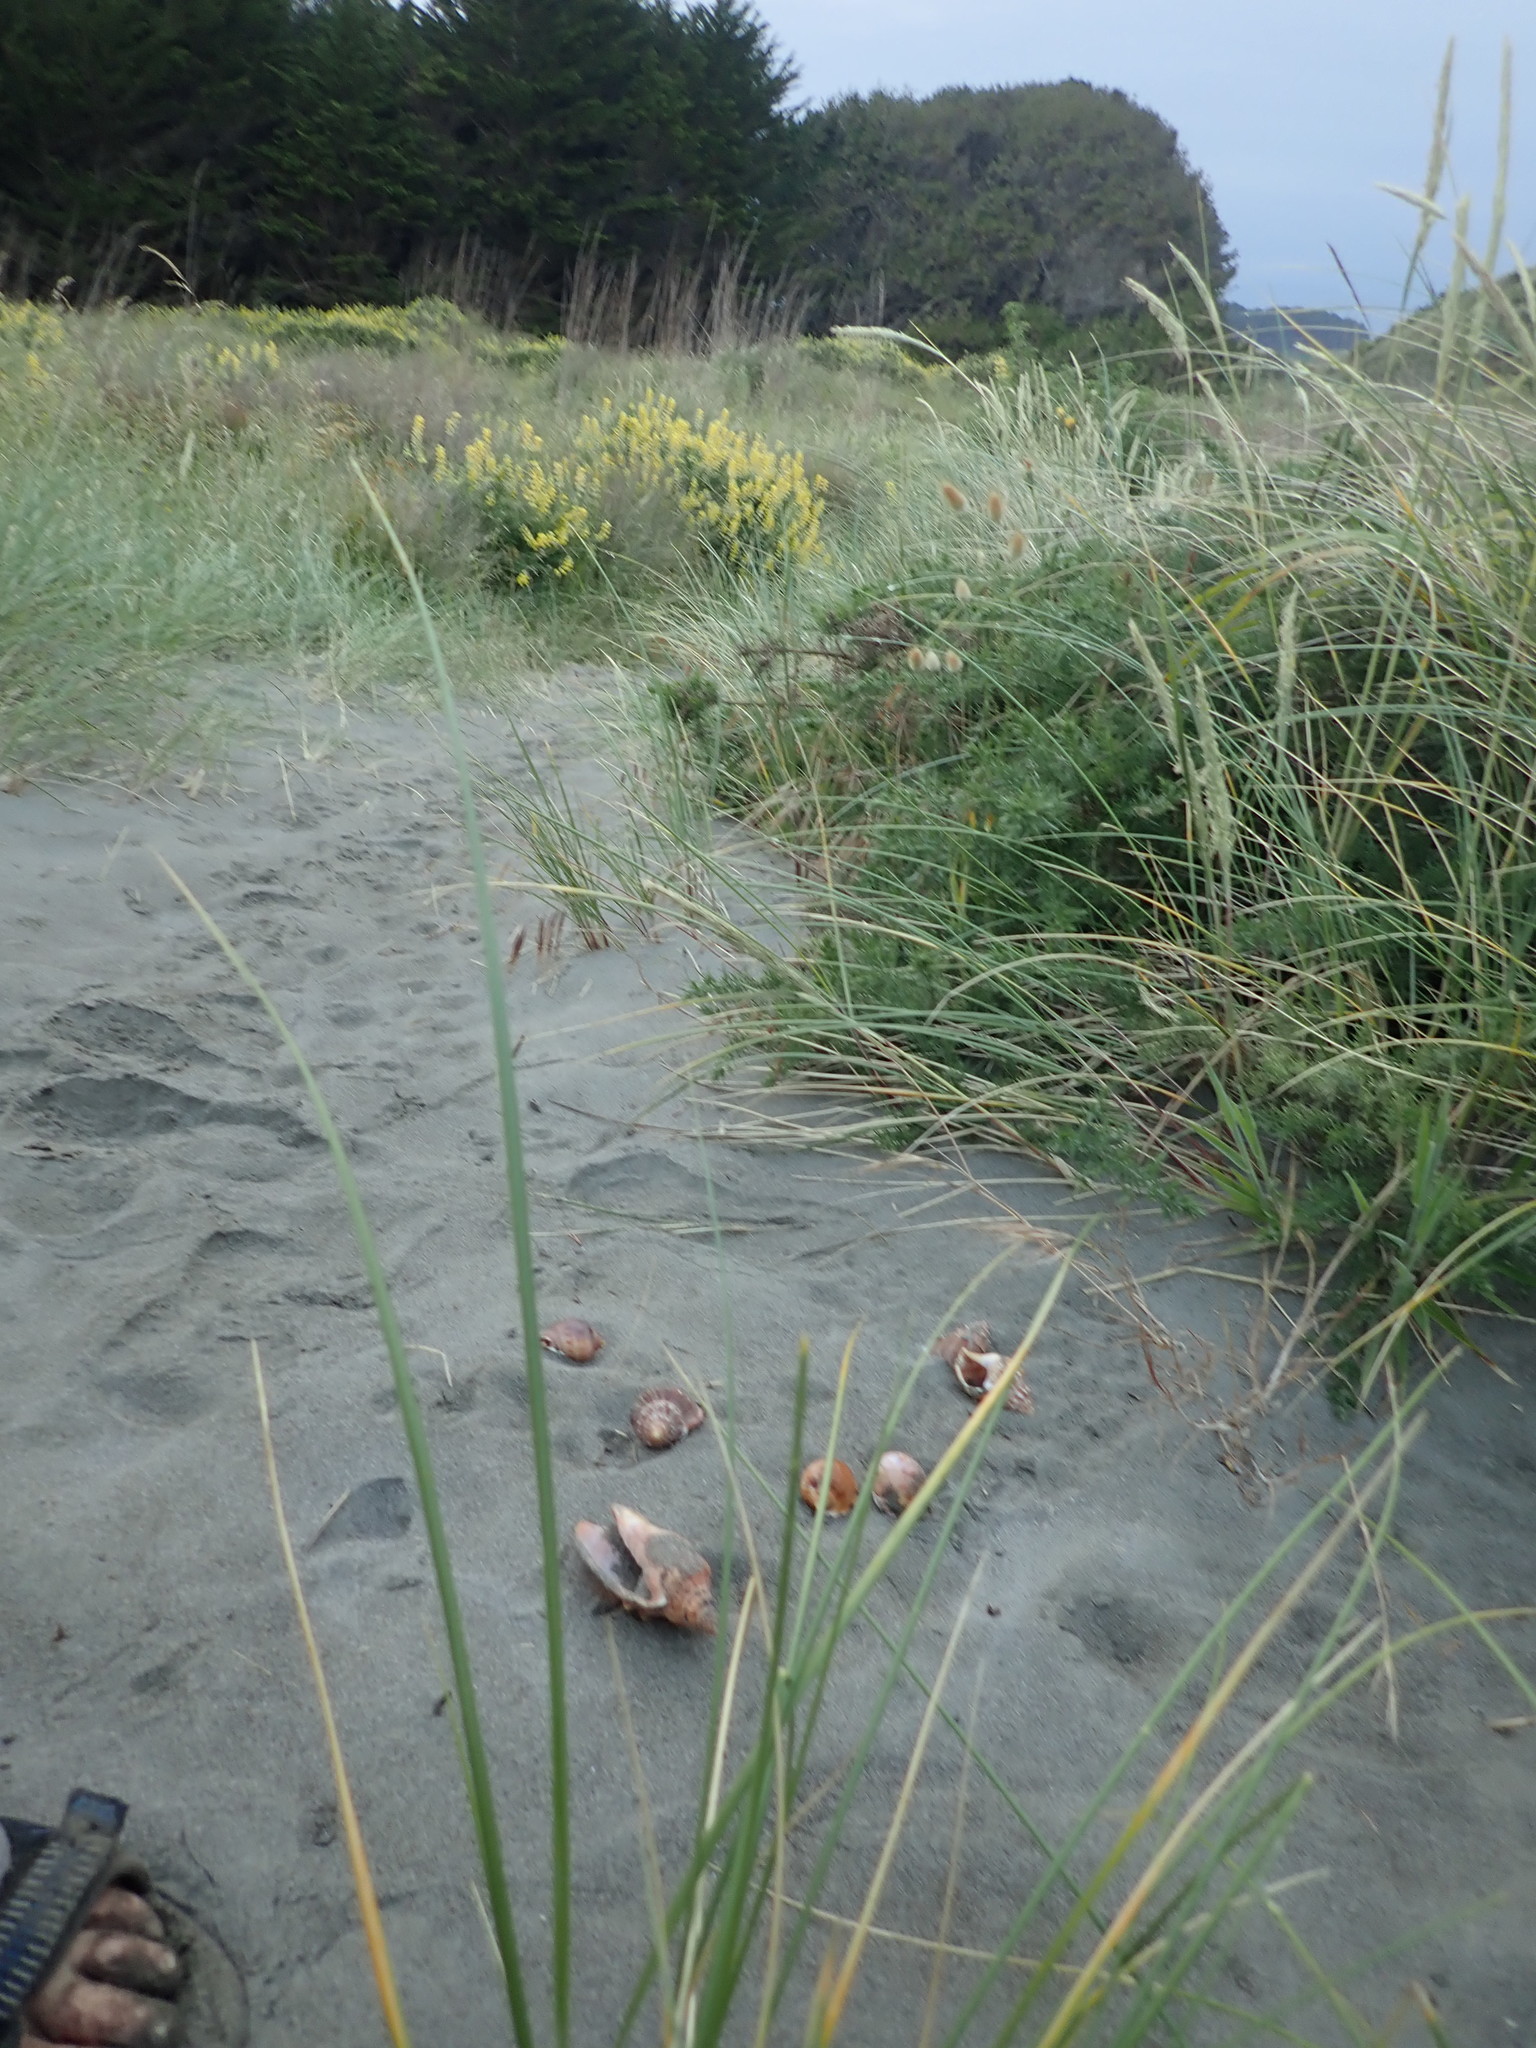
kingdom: Animalia
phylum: Mollusca
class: Gastropoda
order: Littorinimorpha
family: Cassidae
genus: Semicassis
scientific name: Semicassis pyrum
